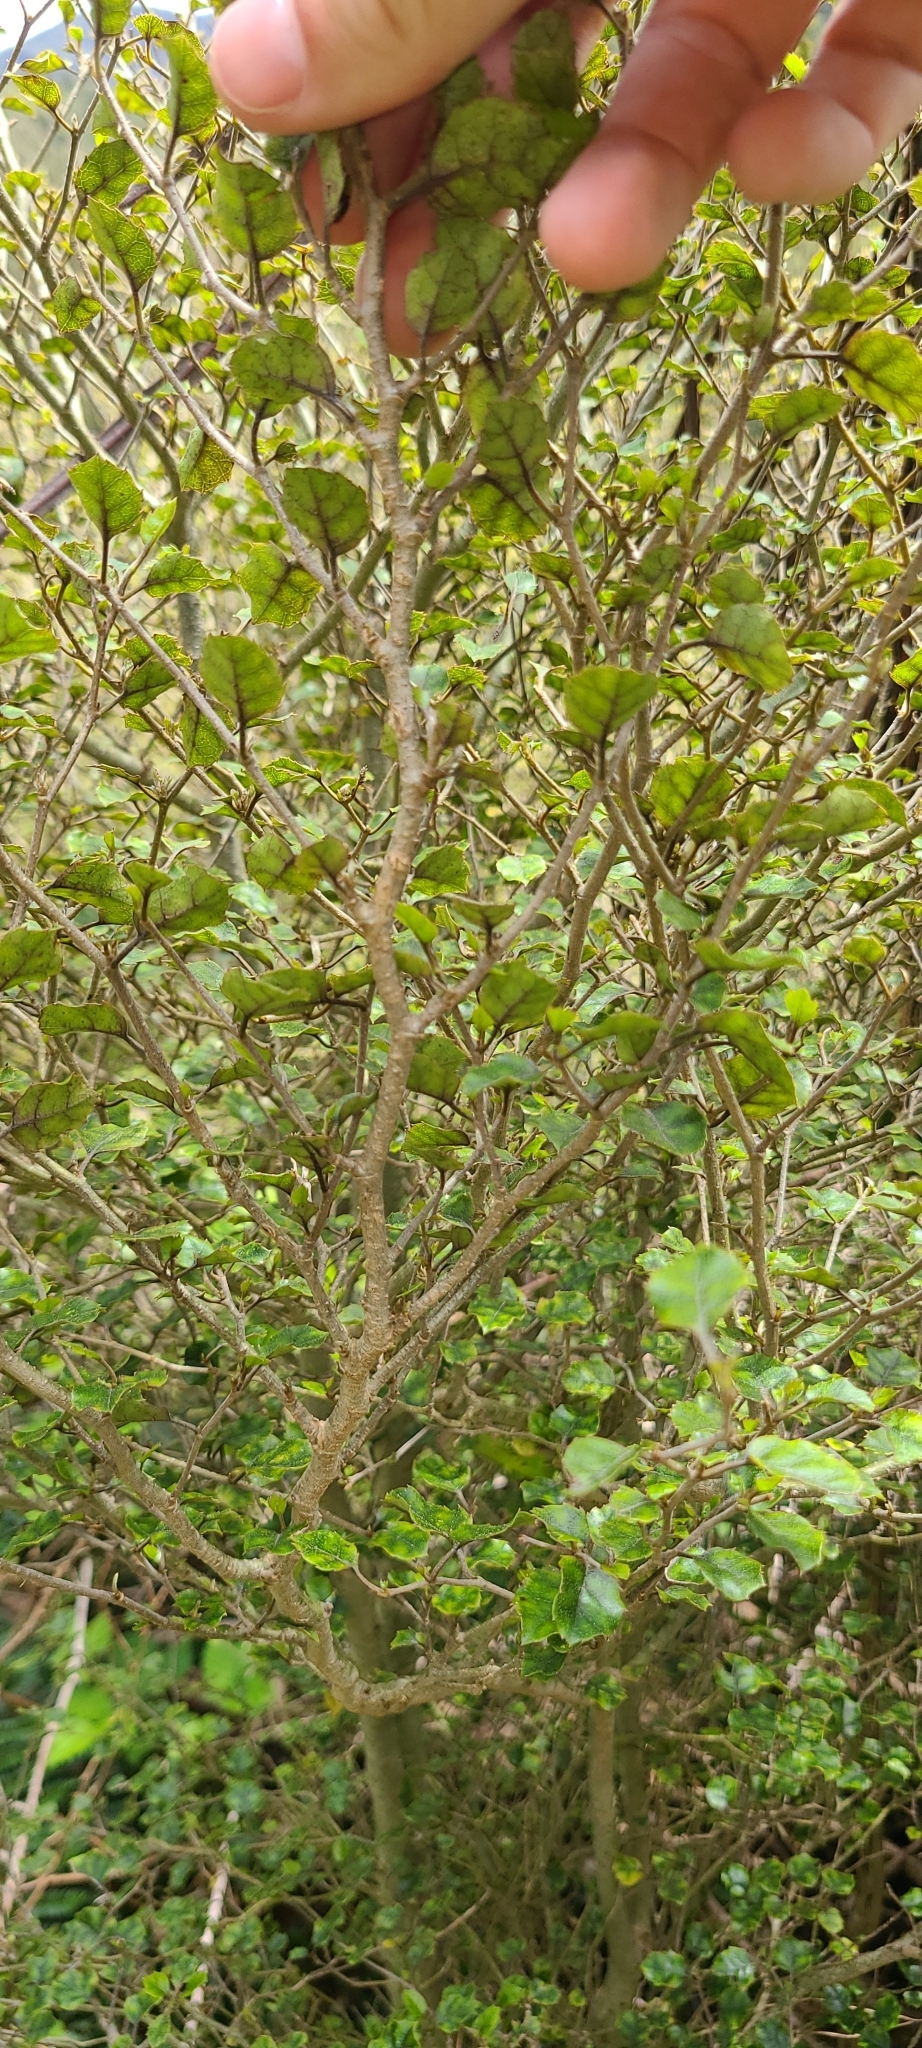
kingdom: Plantae
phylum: Tracheophyta
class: Magnoliopsida
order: Asterales
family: Rousseaceae
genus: Carpodetus
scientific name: Carpodetus serratus
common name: White mapau
